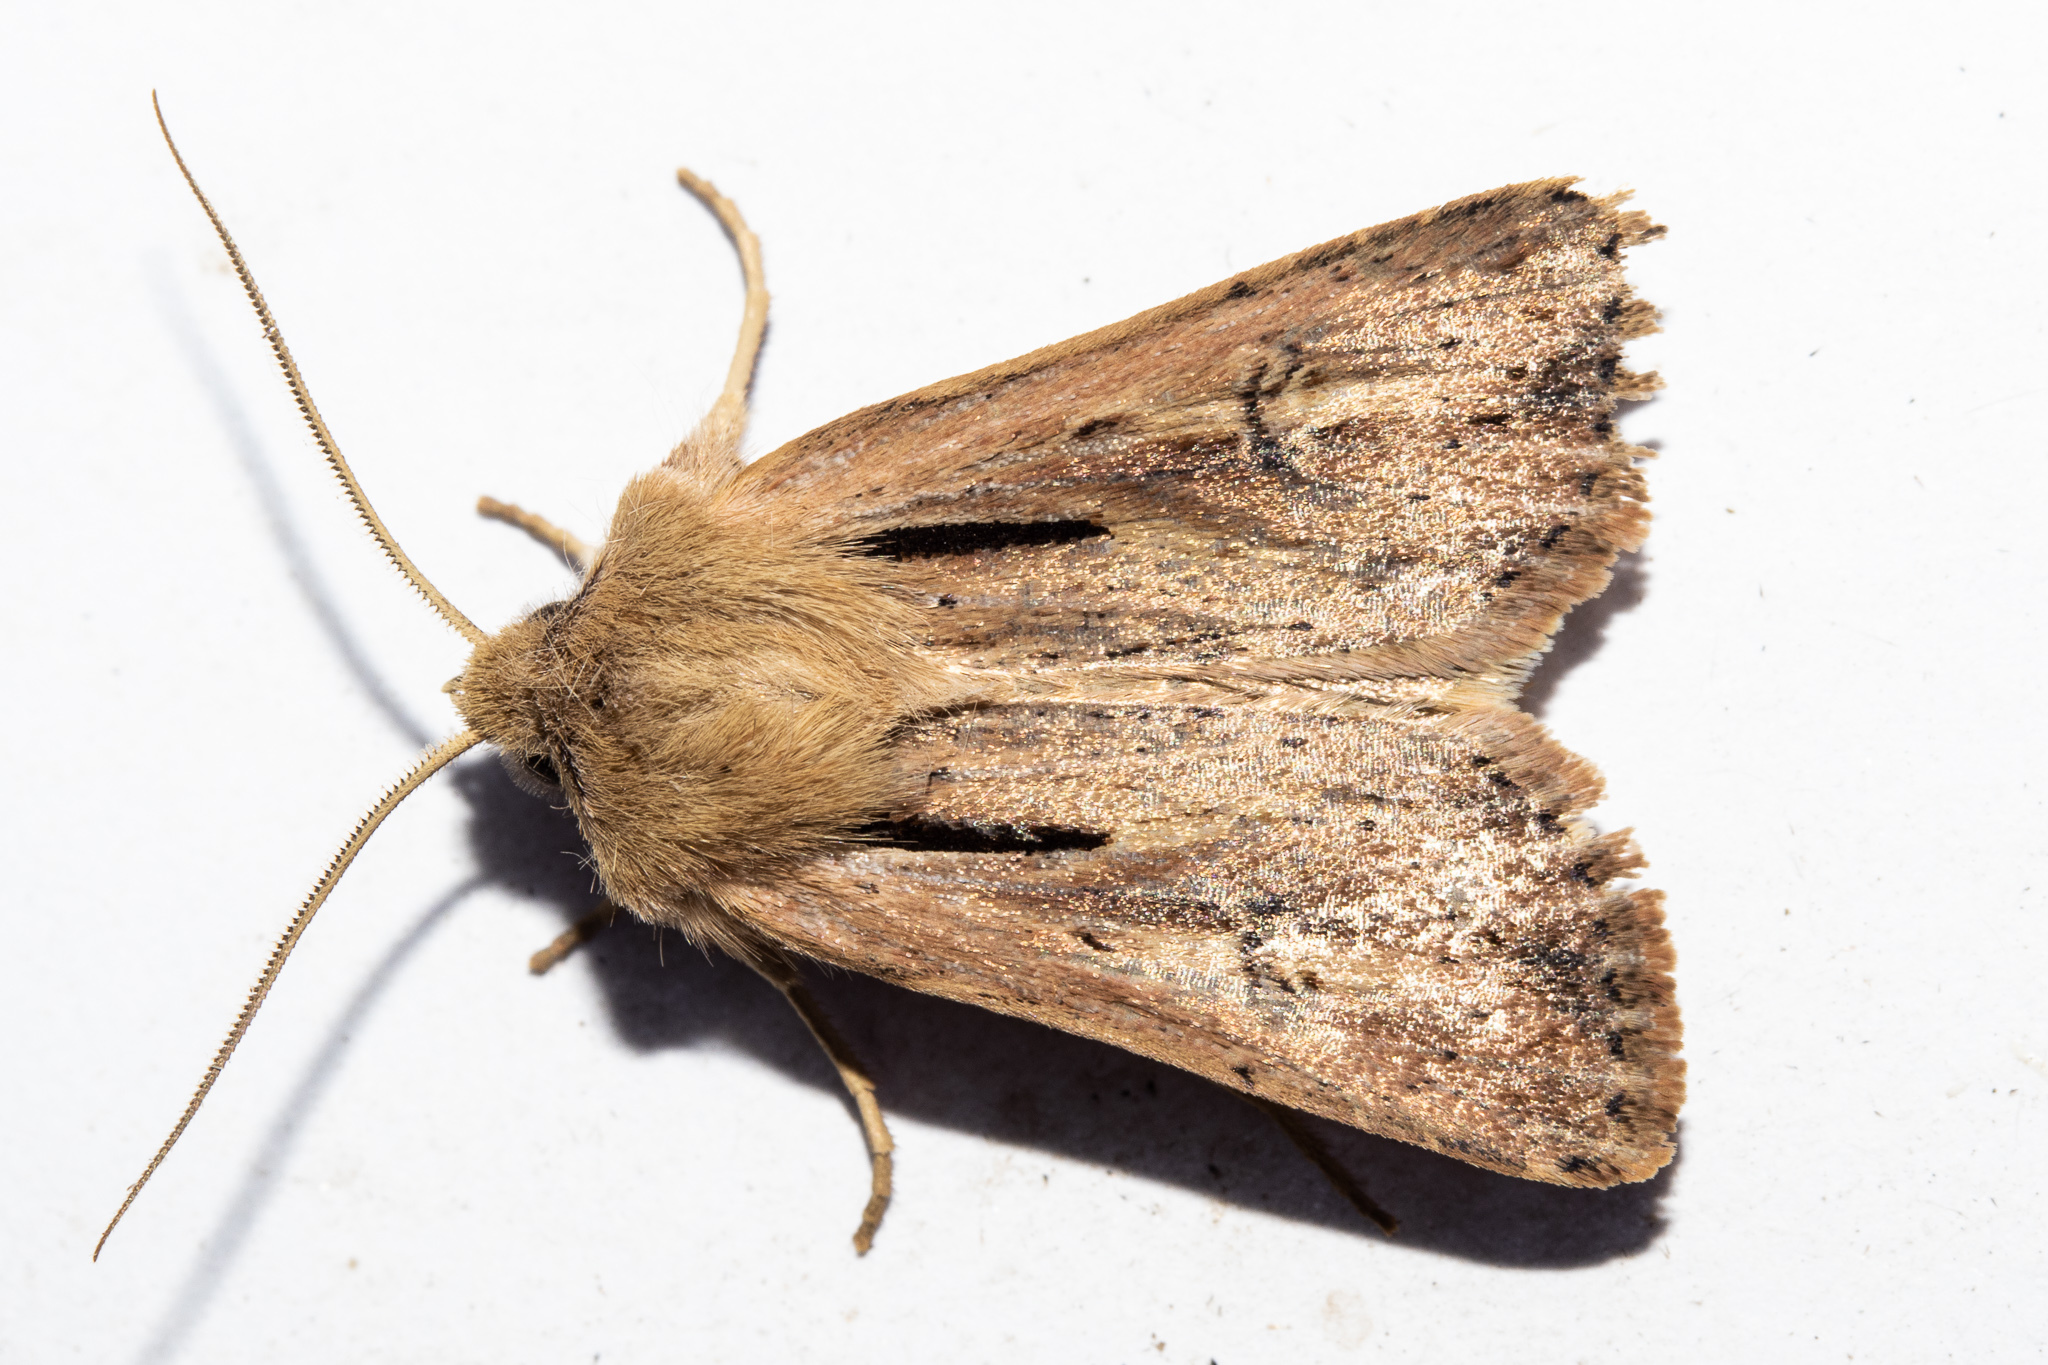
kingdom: Animalia
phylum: Arthropoda
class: Insecta
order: Lepidoptera
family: Noctuidae
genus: Ichneutica
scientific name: Ichneutica propria
